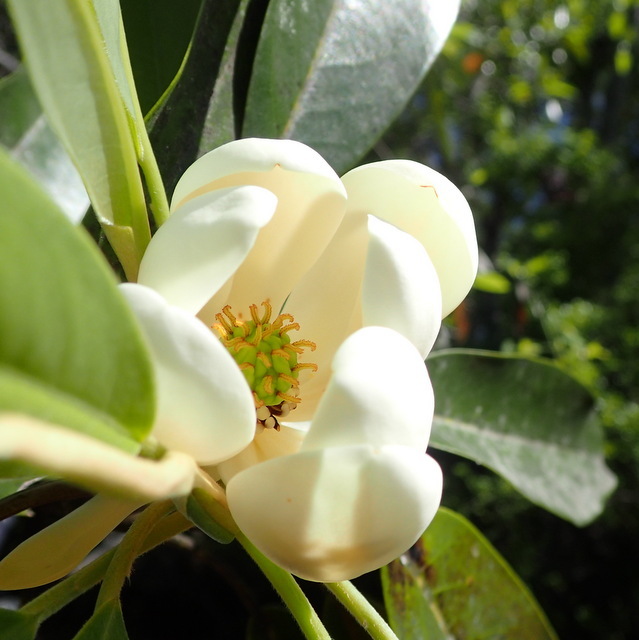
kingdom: Plantae
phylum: Tracheophyta
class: Magnoliopsida
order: Magnoliales
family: Magnoliaceae
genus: Magnolia
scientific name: Magnolia virginiana
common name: Swamp bay
